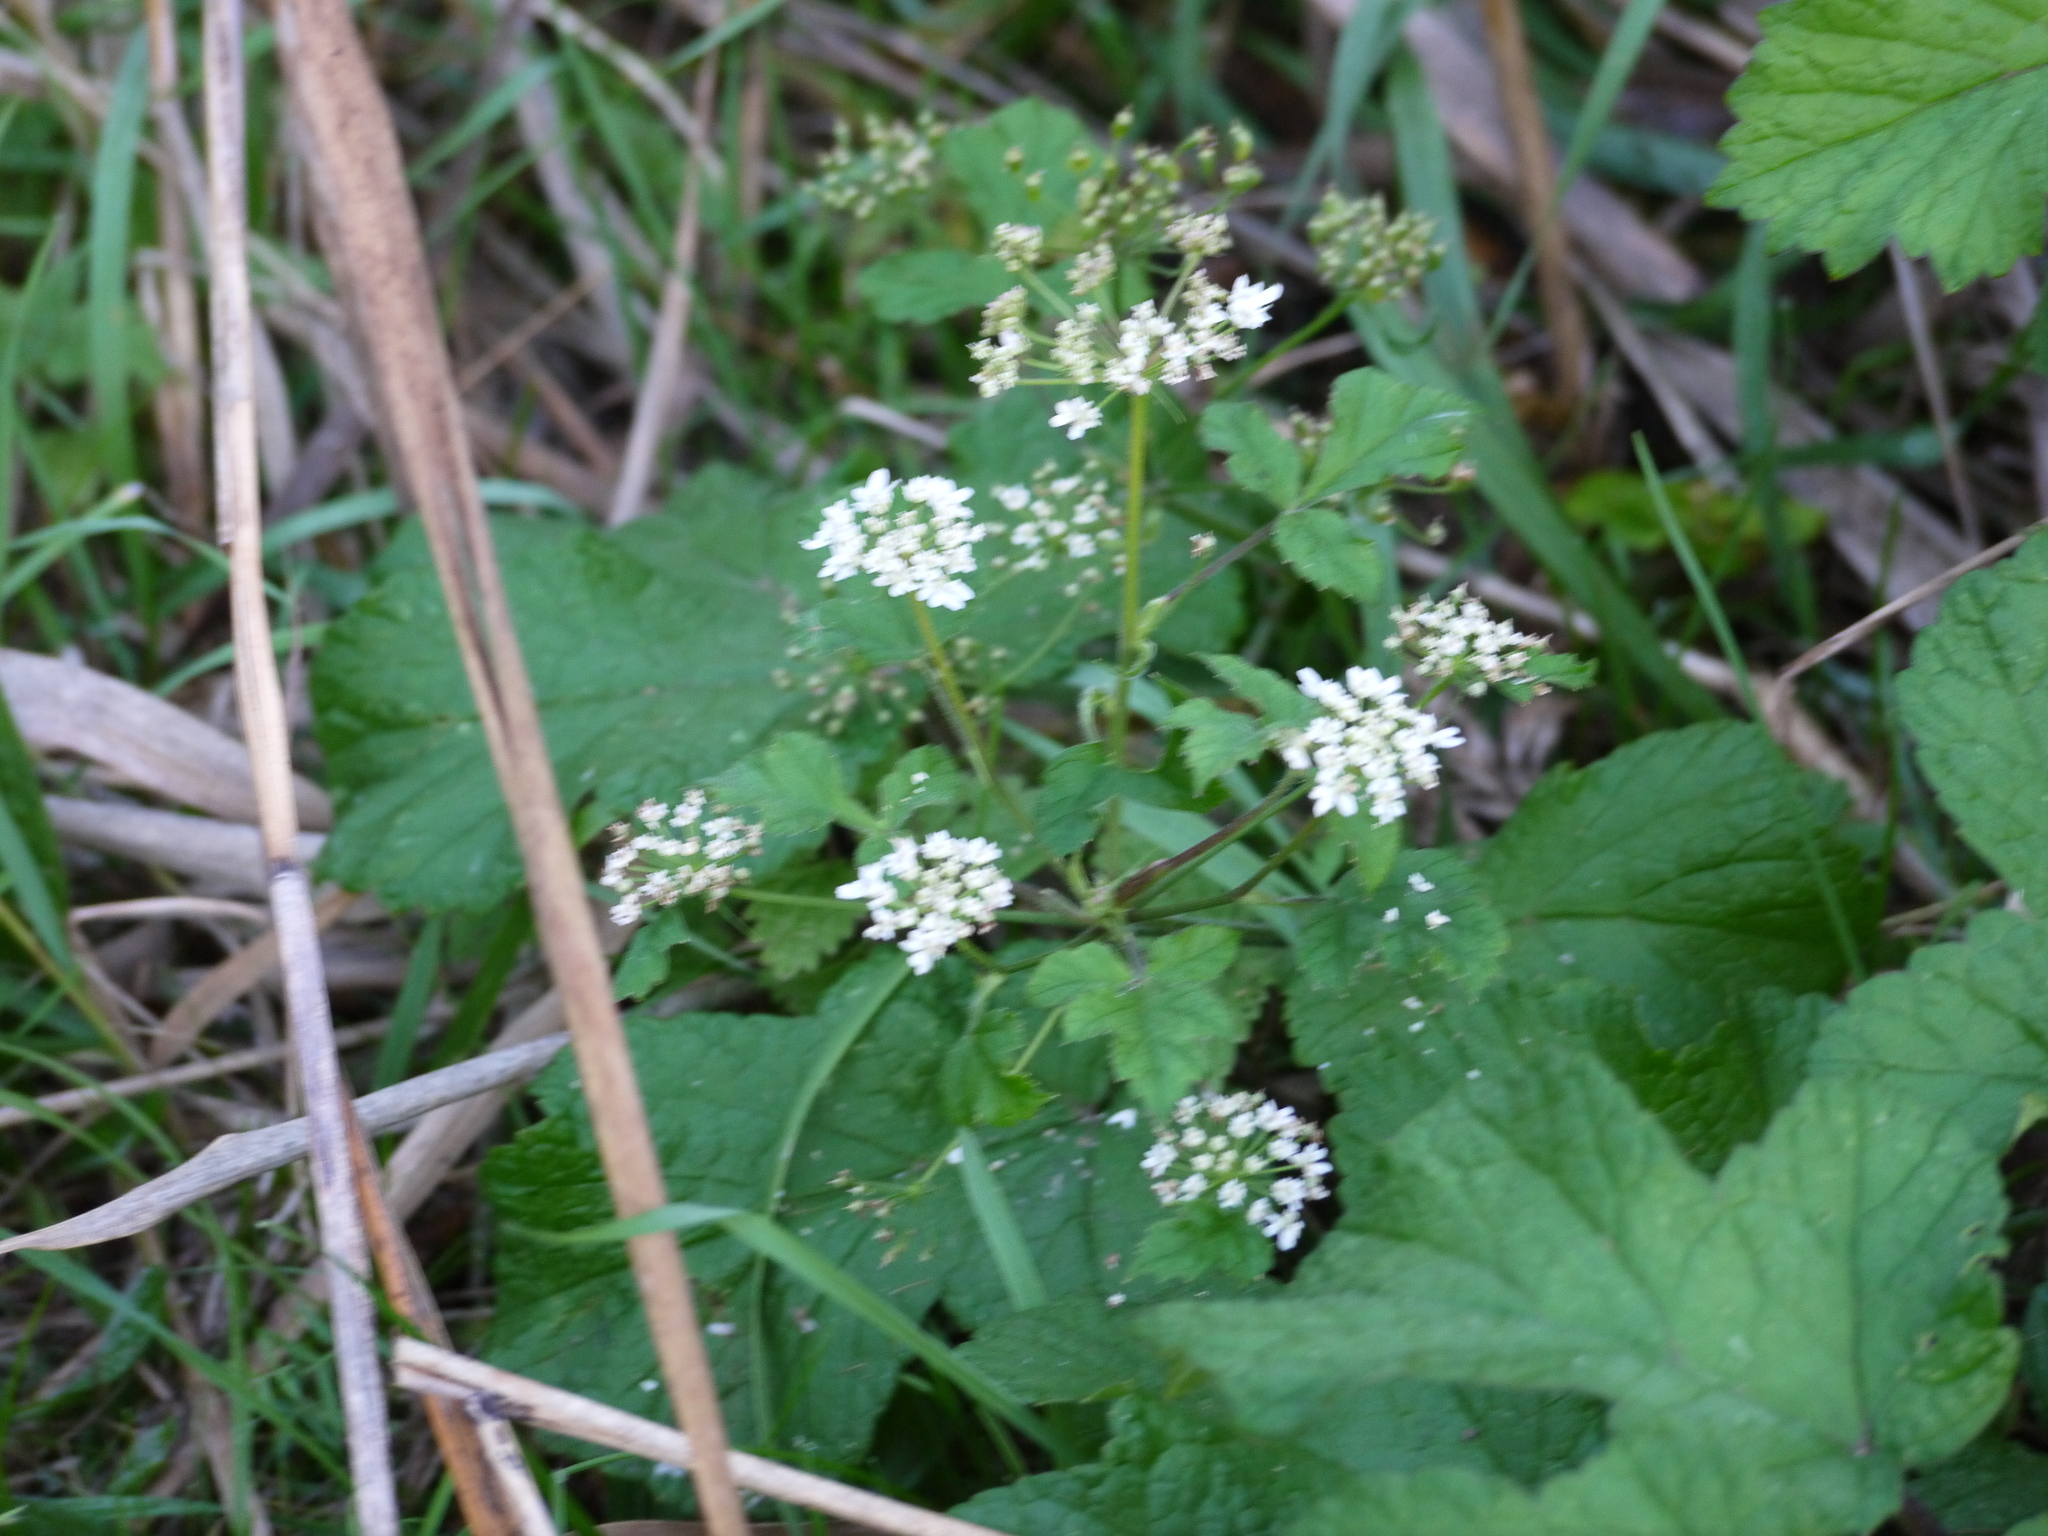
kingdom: Plantae
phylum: Tracheophyta
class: Magnoliopsida
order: Apiales
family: Apiaceae
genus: Heracleum
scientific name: Heracleum sphondylium
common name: Hogweed
